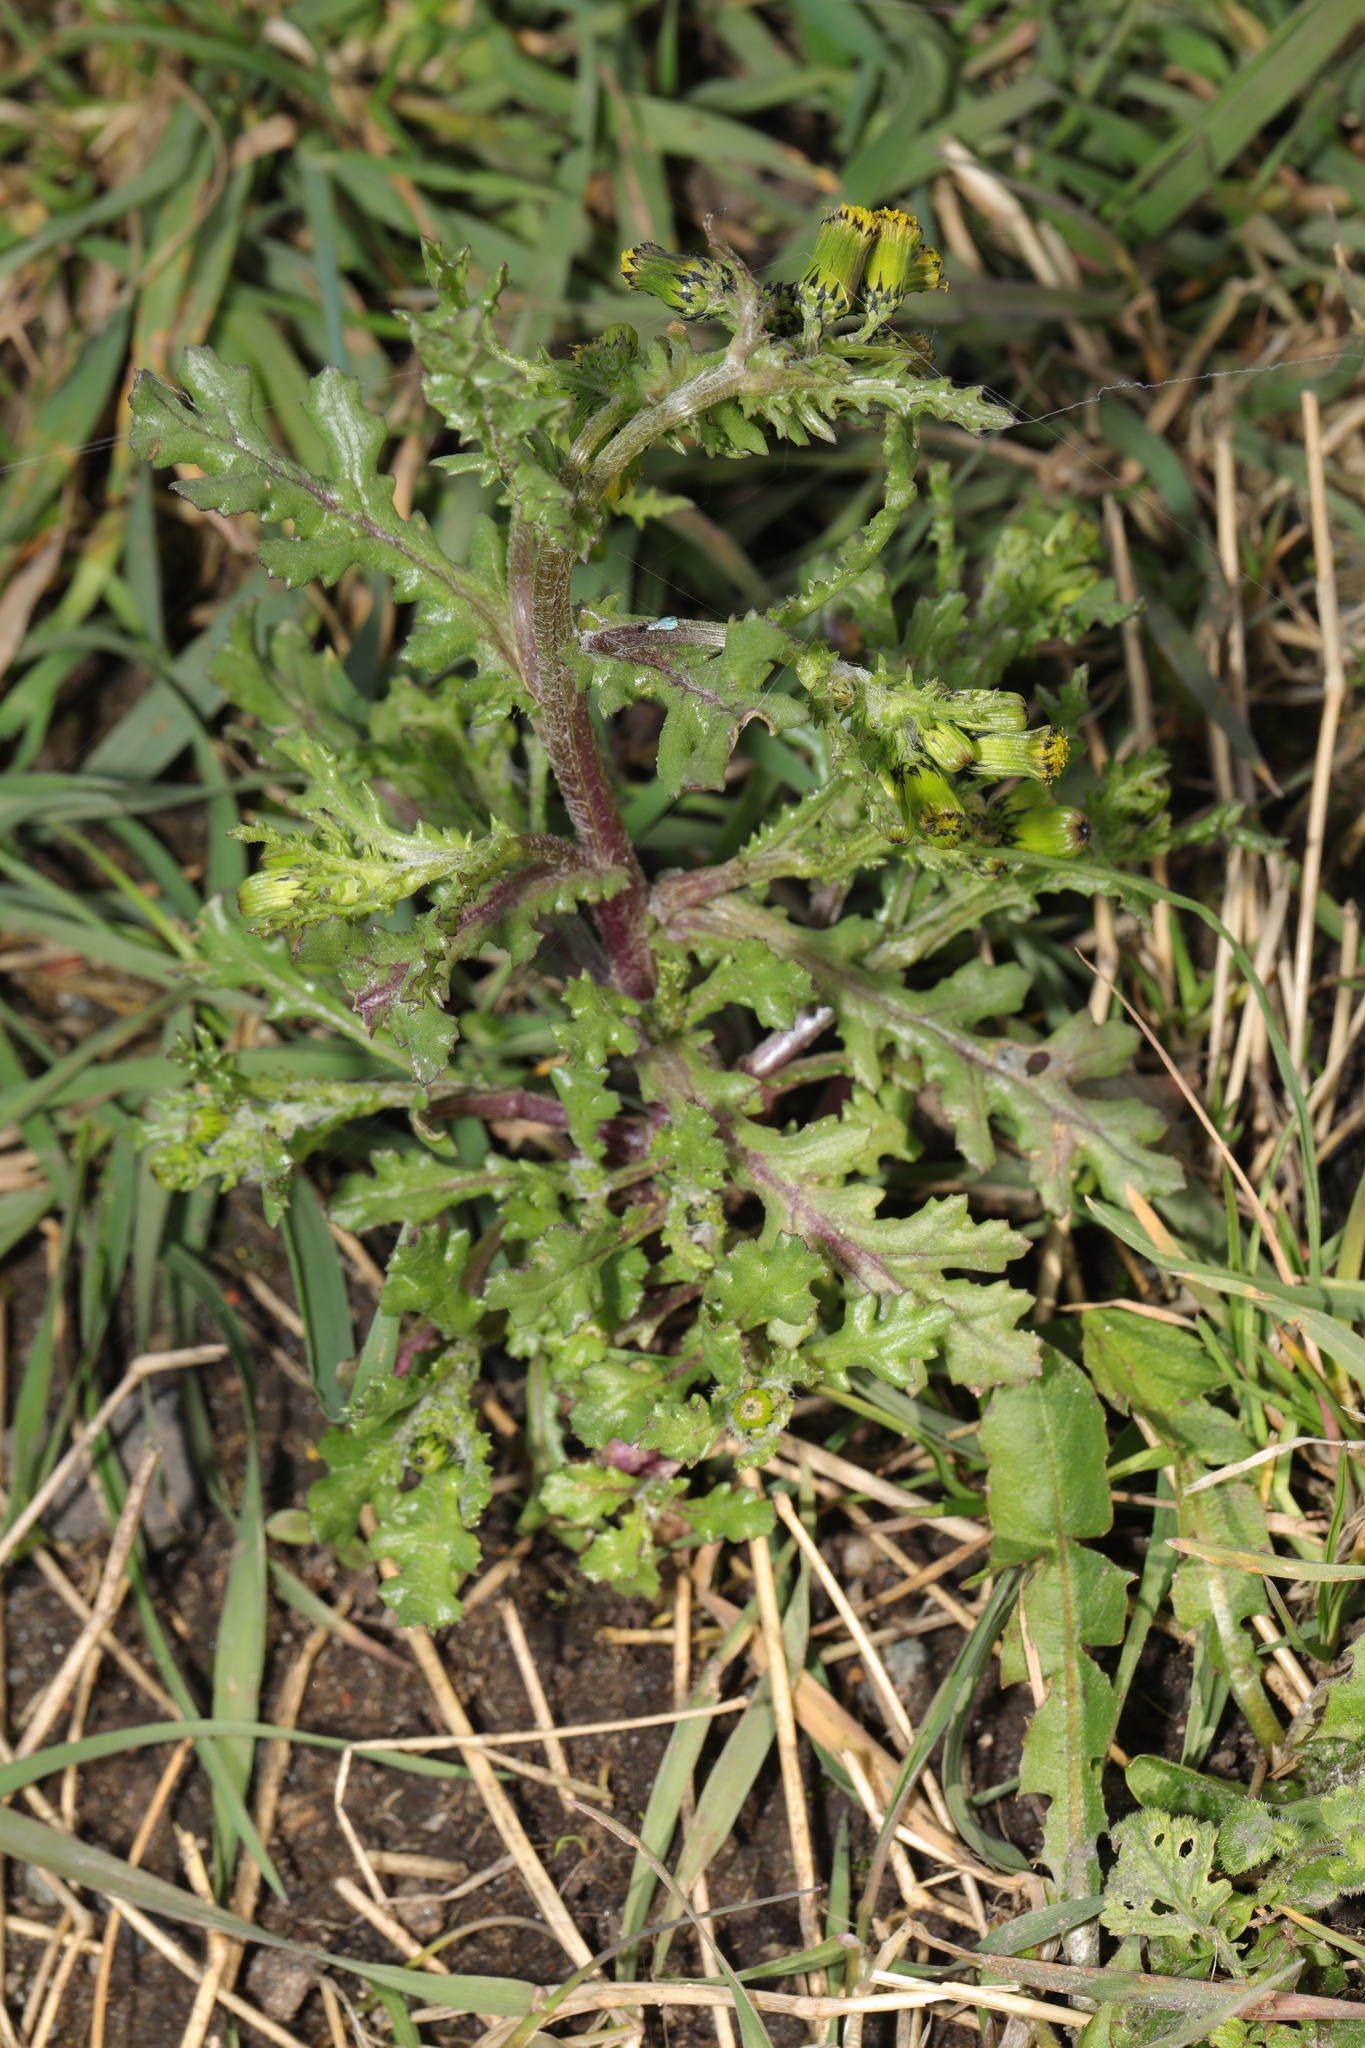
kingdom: Plantae
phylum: Tracheophyta
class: Magnoliopsida
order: Asterales
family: Asteraceae
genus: Senecio
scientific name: Senecio vulgaris
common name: Old-man-in-the-spring
